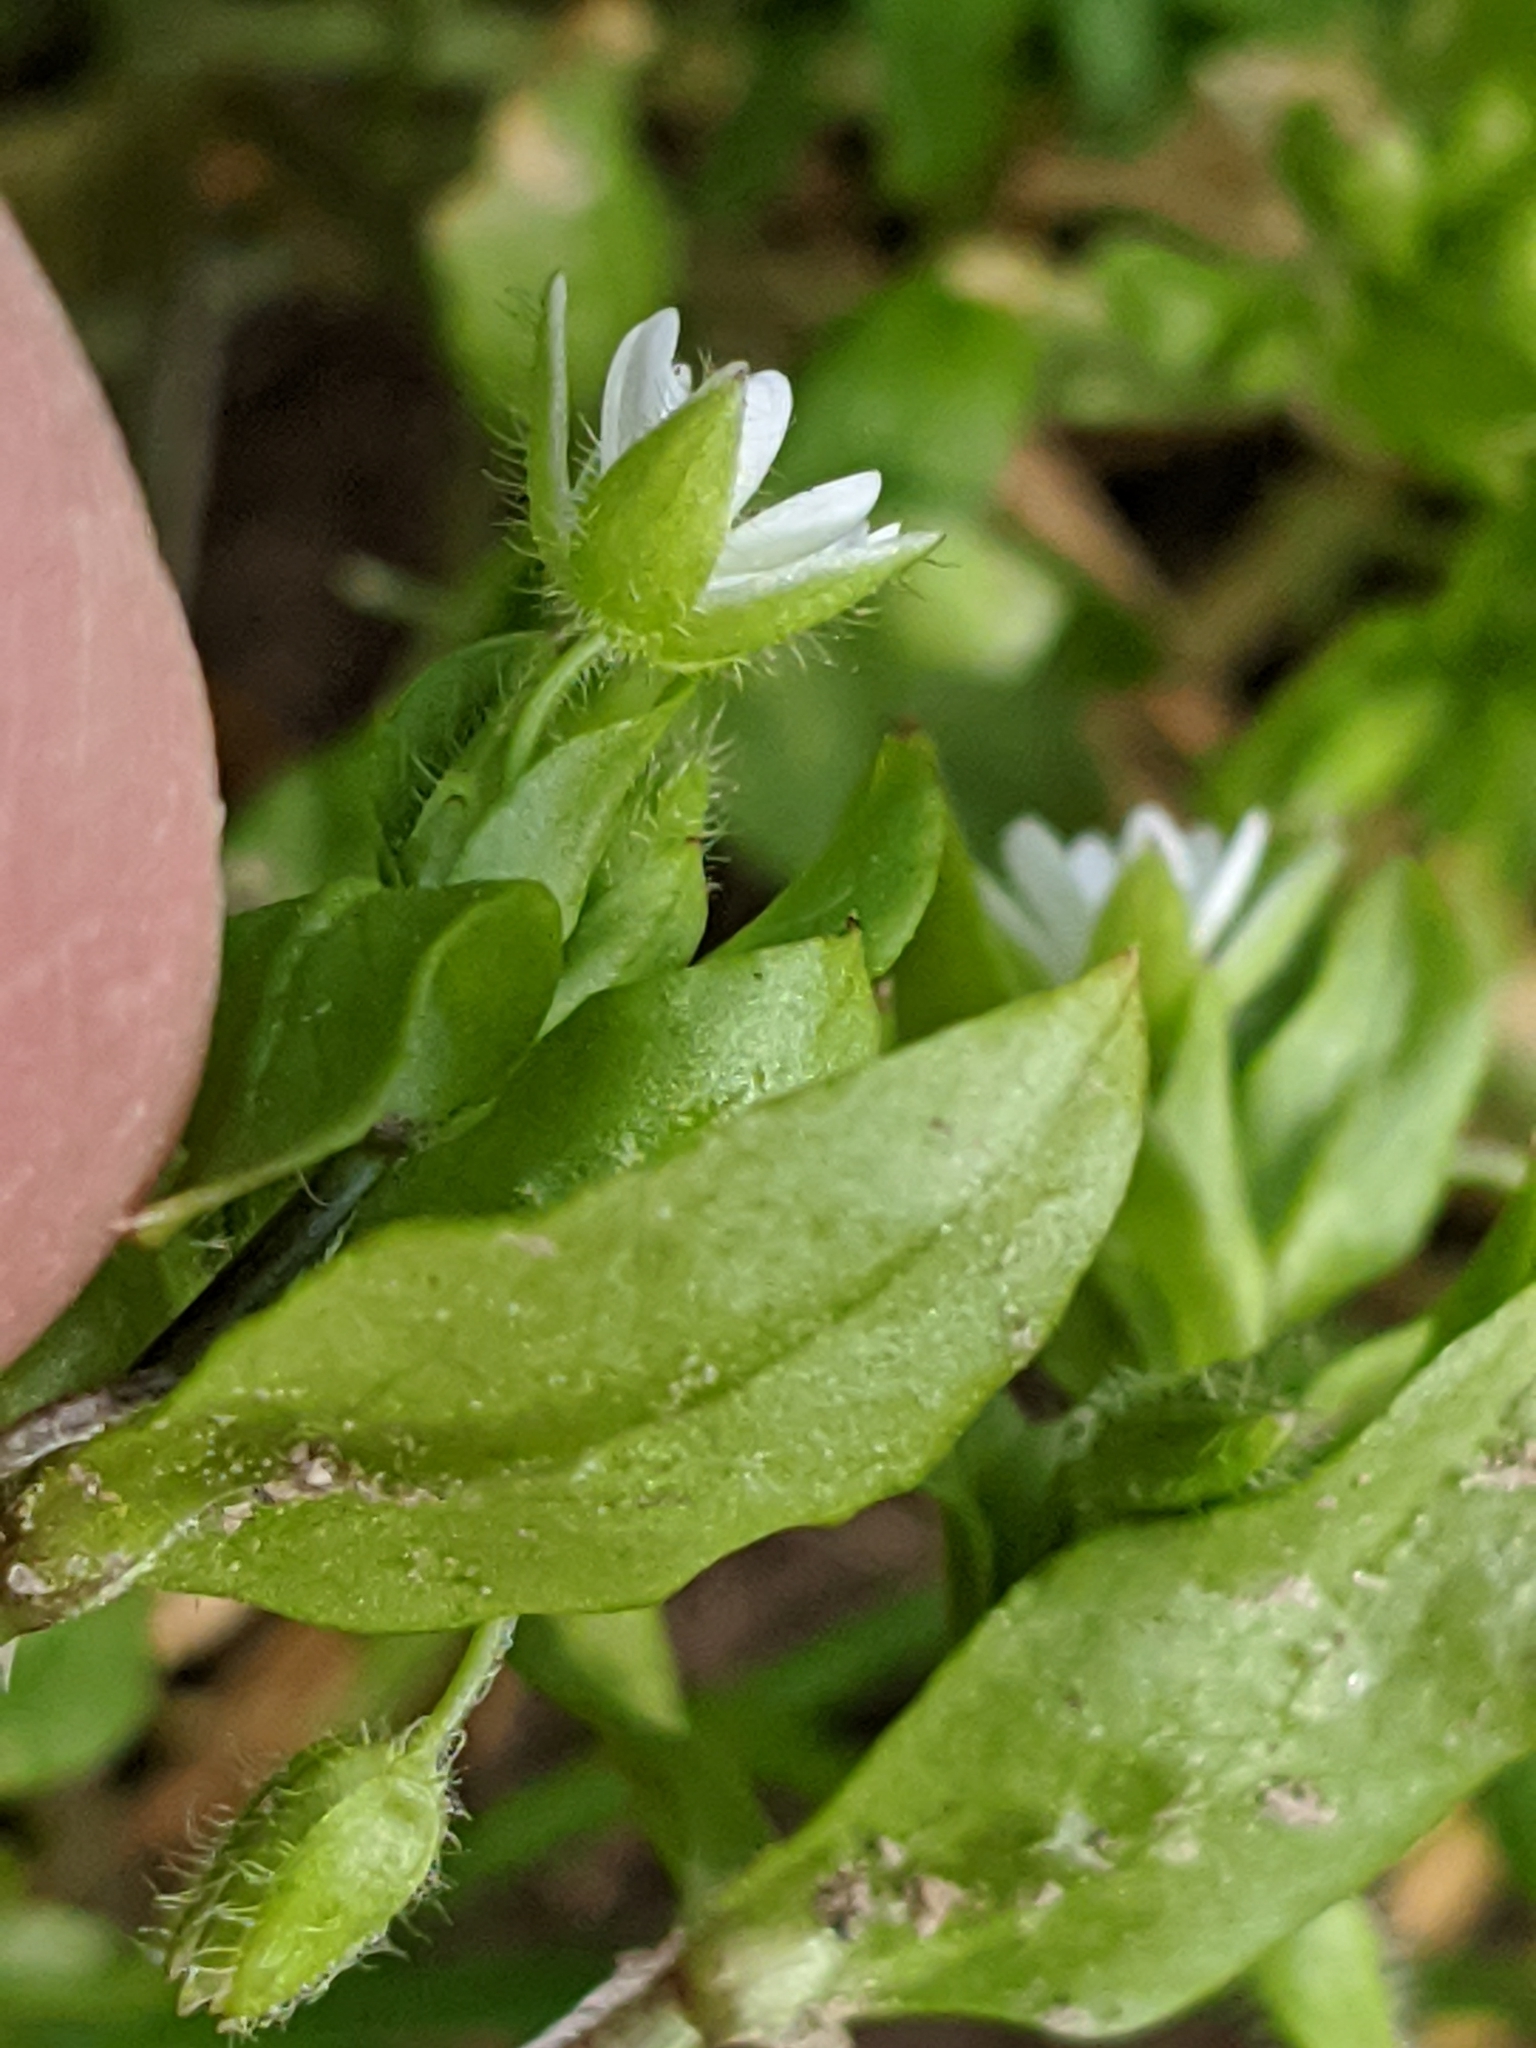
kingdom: Plantae
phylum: Tracheophyta
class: Magnoliopsida
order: Caryophyllales
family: Caryophyllaceae
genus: Stellaria
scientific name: Stellaria media
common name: Common chickweed
